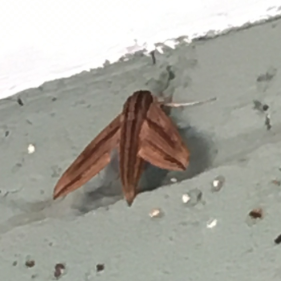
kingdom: Animalia
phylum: Arthropoda
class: Insecta
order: Lepidoptera
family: Sphingidae
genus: Hippotion
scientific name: Hippotion eson
